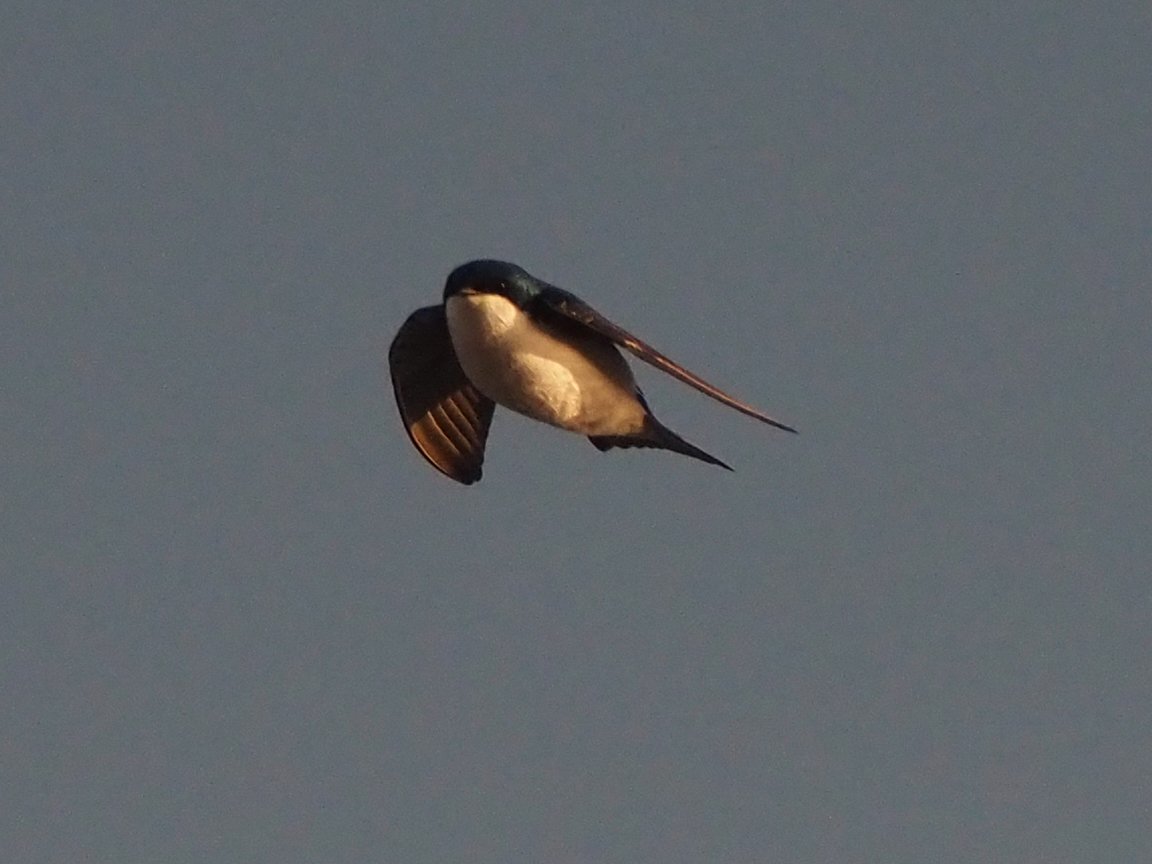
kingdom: Animalia
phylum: Chordata
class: Aves
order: Passeriformes
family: Hirundinidae
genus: Tachycineta
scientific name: Tachycineta bicolor
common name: Tree swallow
